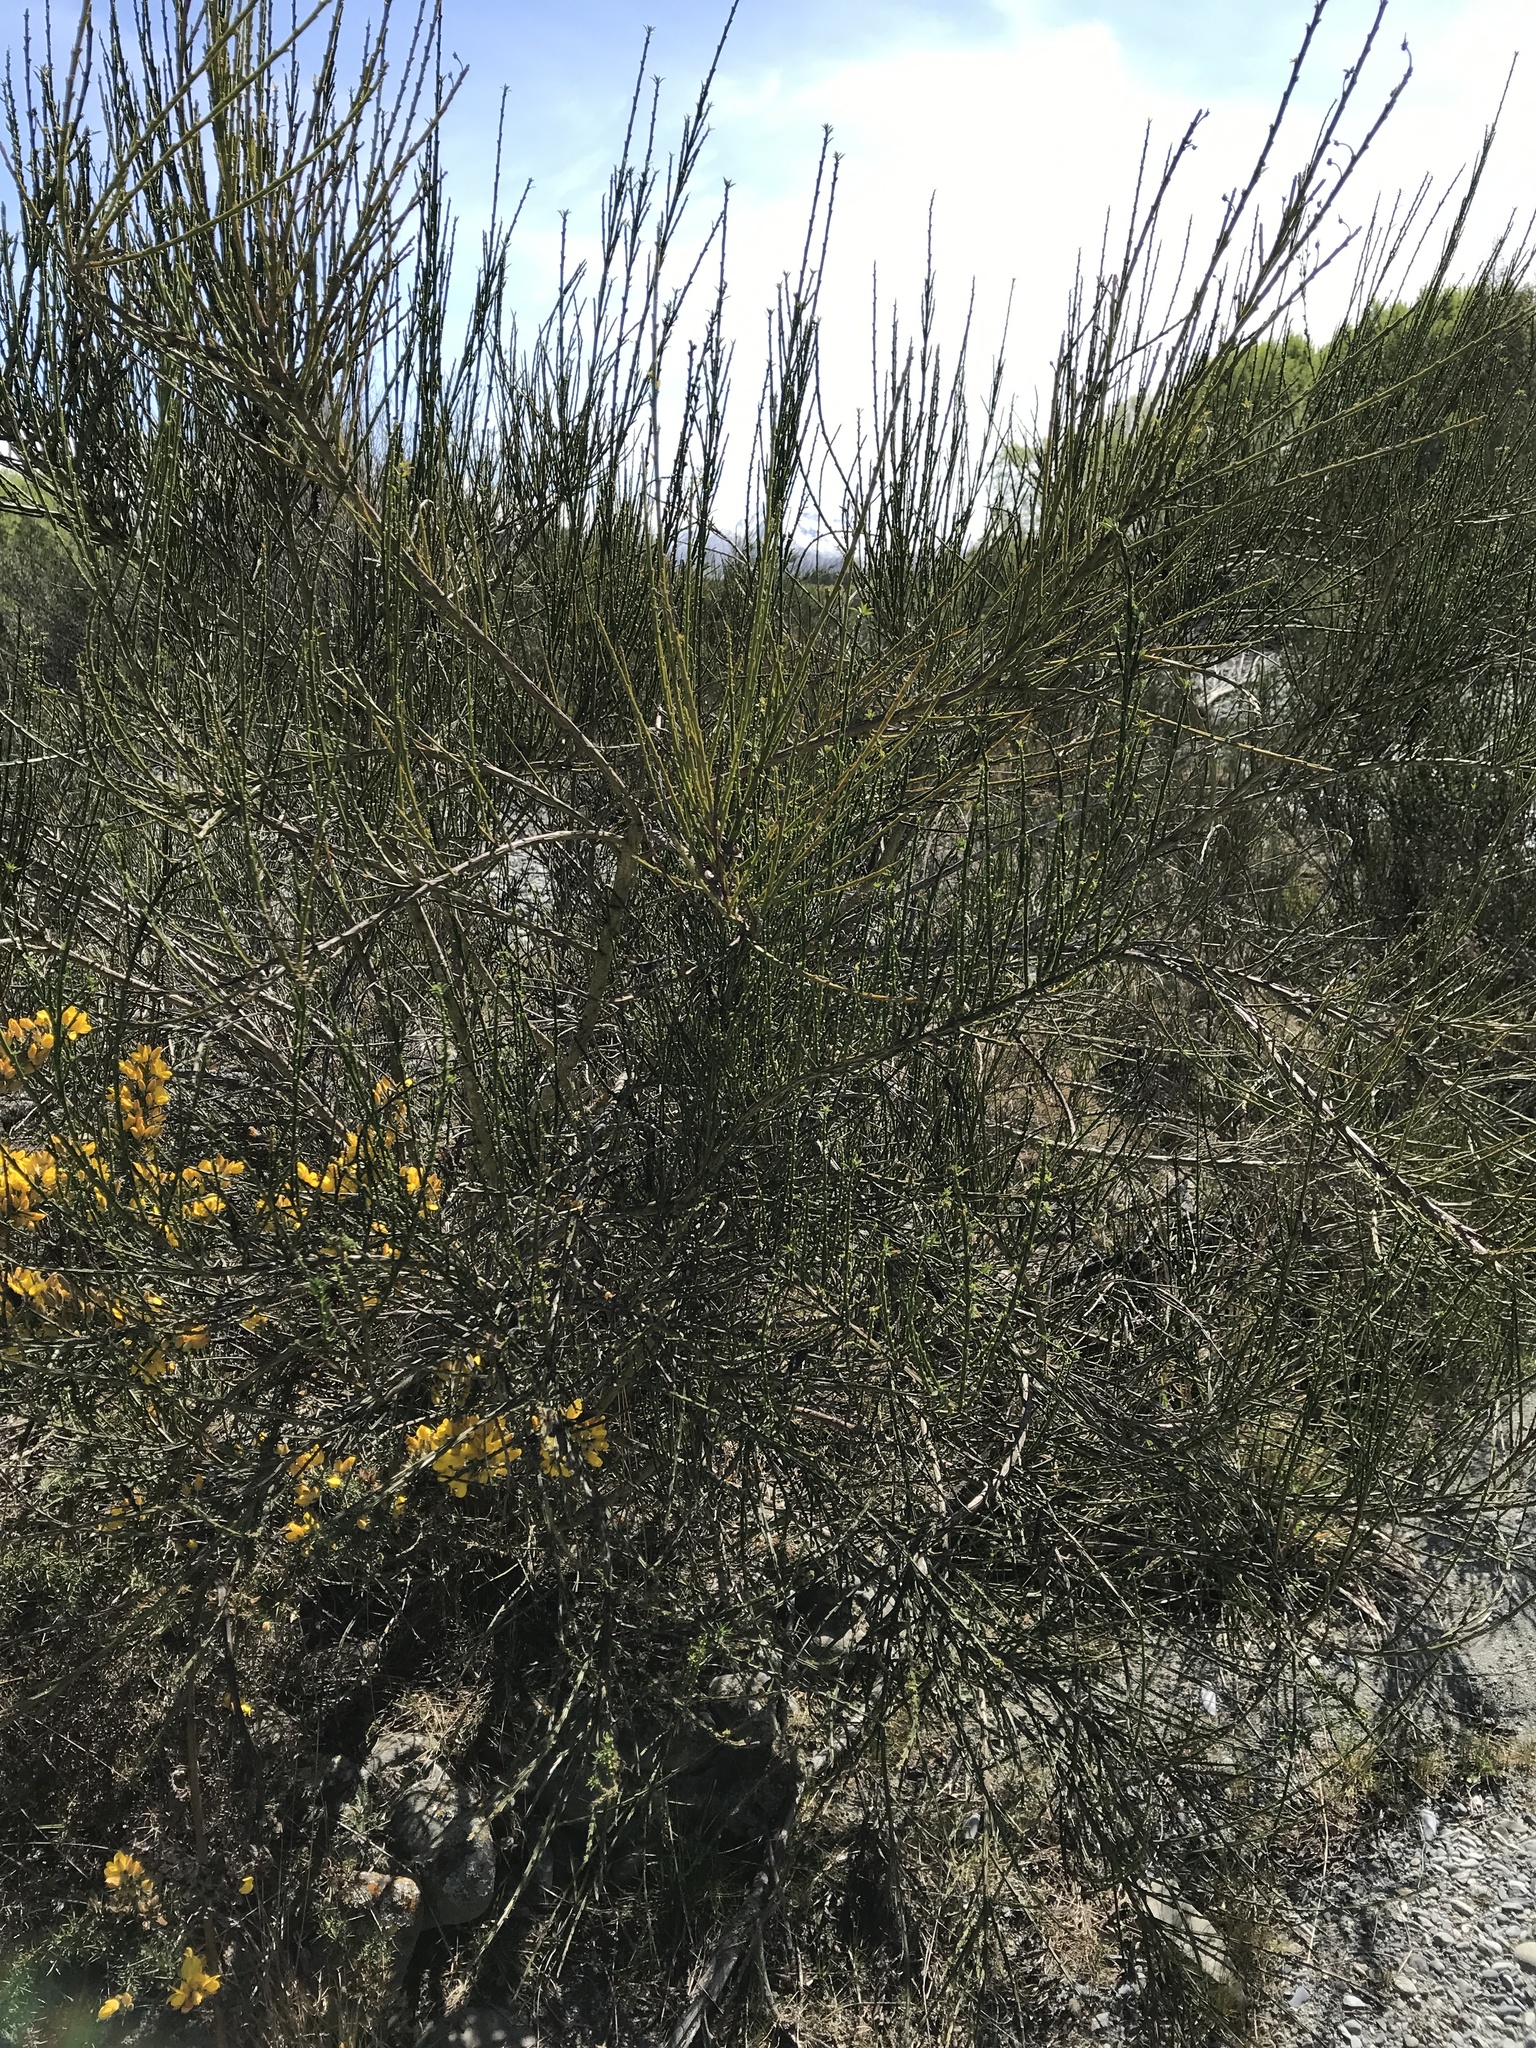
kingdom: Plantae
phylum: Tracheophyta
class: Magnoliopsida
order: Fabales
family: Fabaceae
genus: Cytisus
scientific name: Cytisus scoparius
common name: Scotch broom
